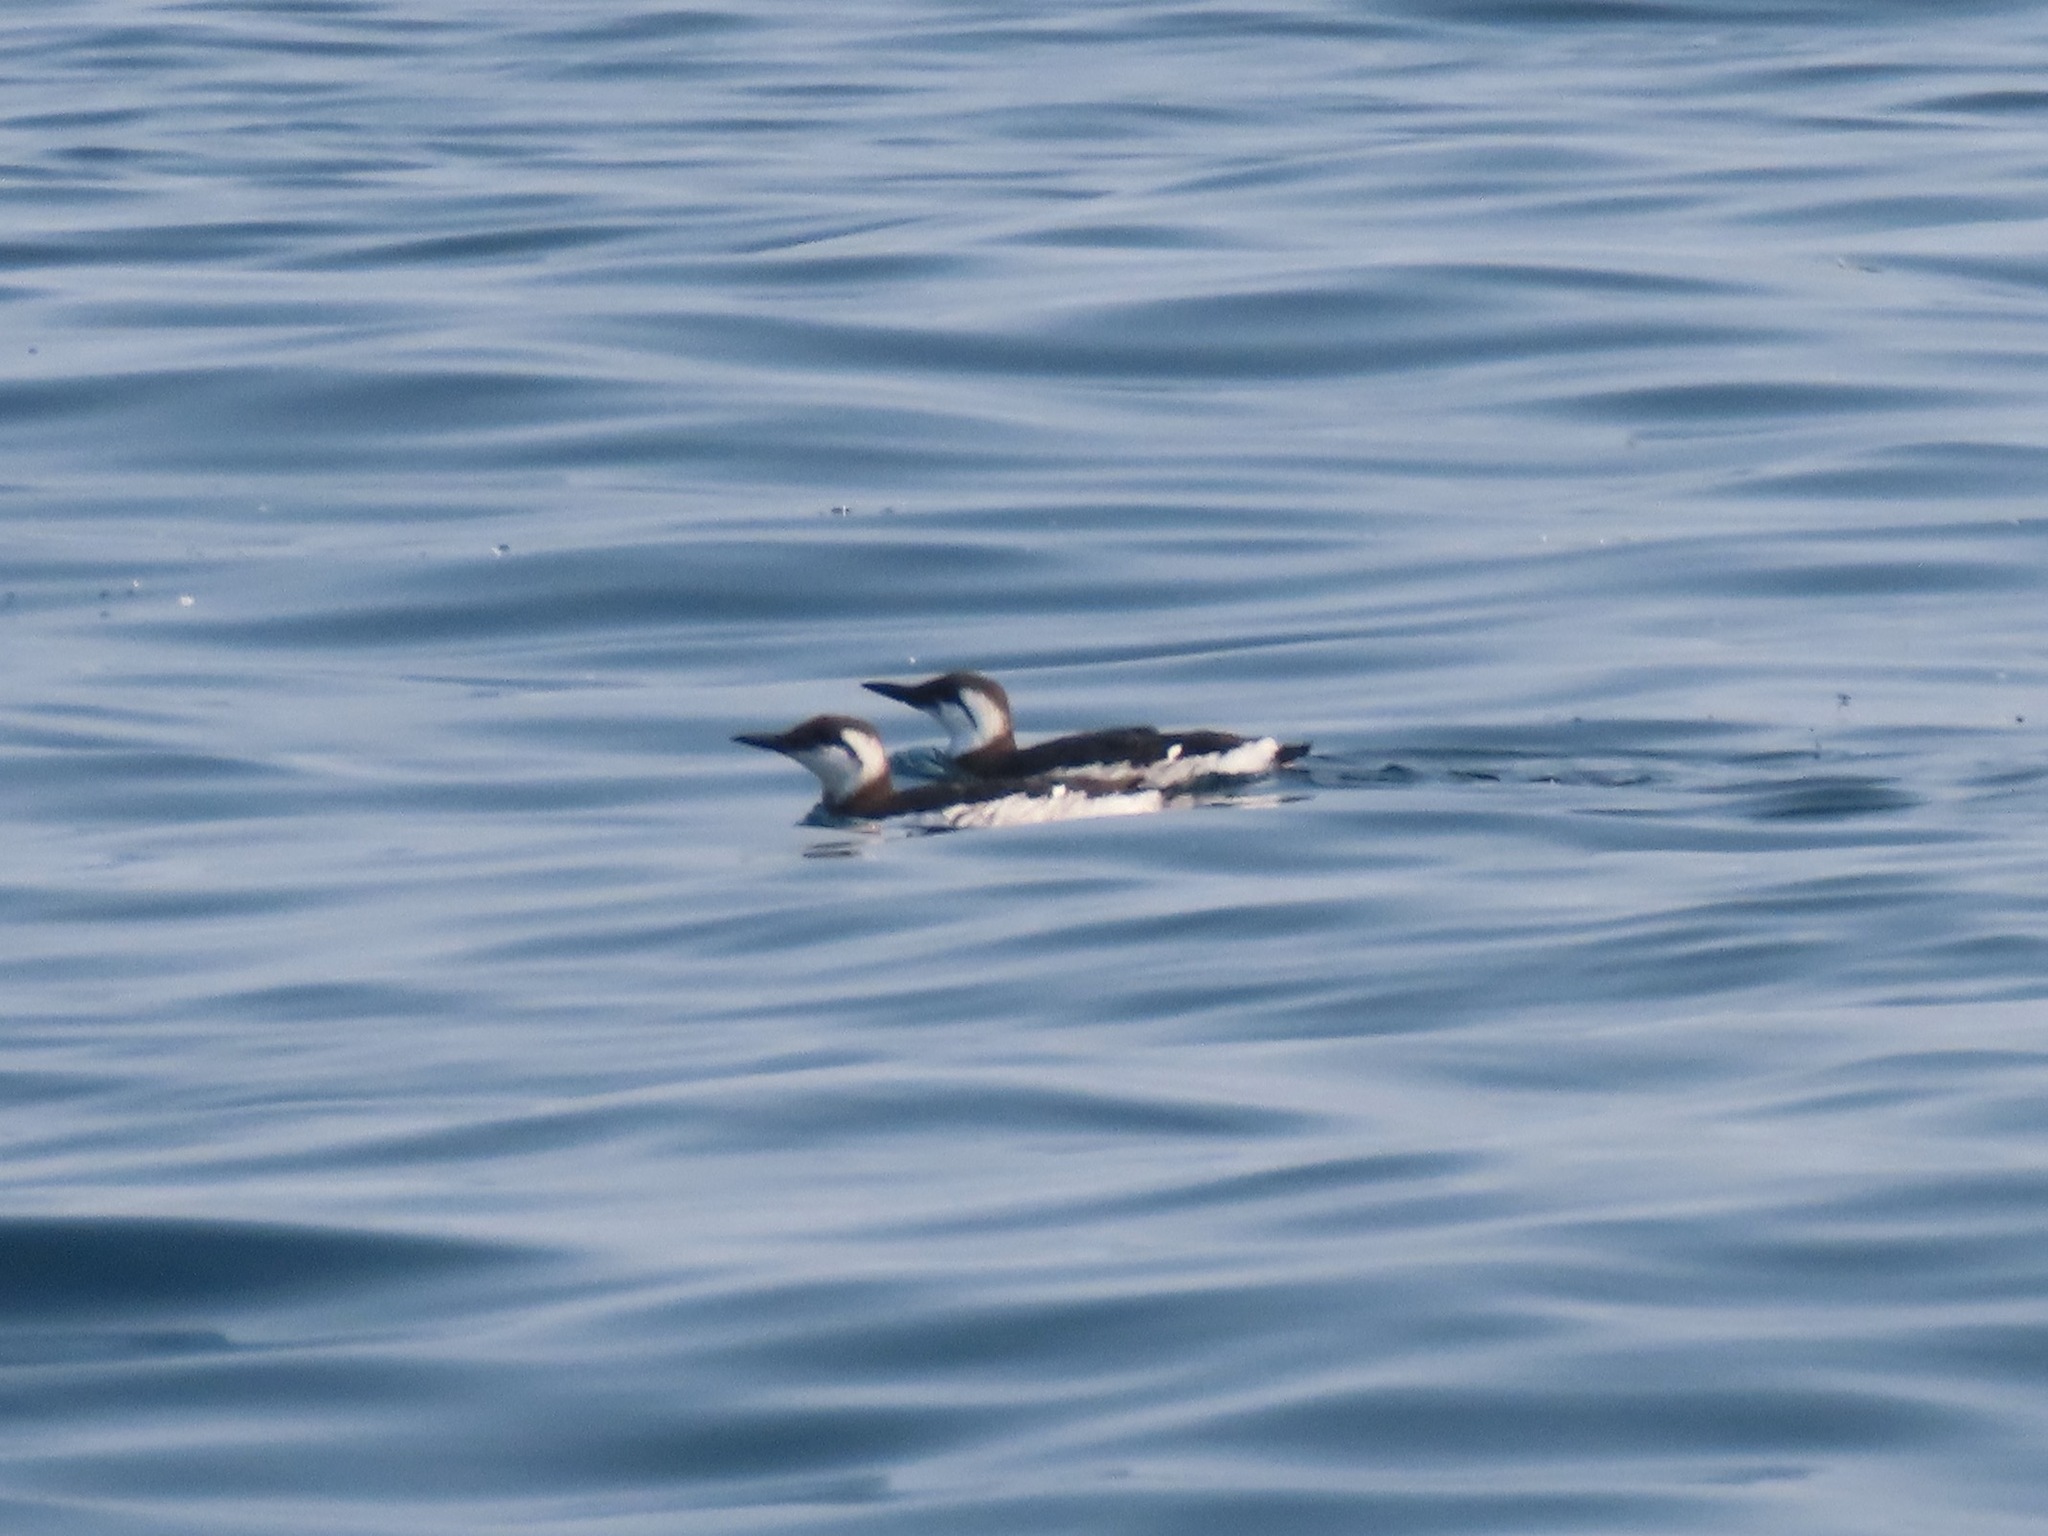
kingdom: Animalia
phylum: Chordata
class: Aves
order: Charadriiformes
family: Alcidae
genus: Uria
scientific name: Uria aalge
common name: Common murre
